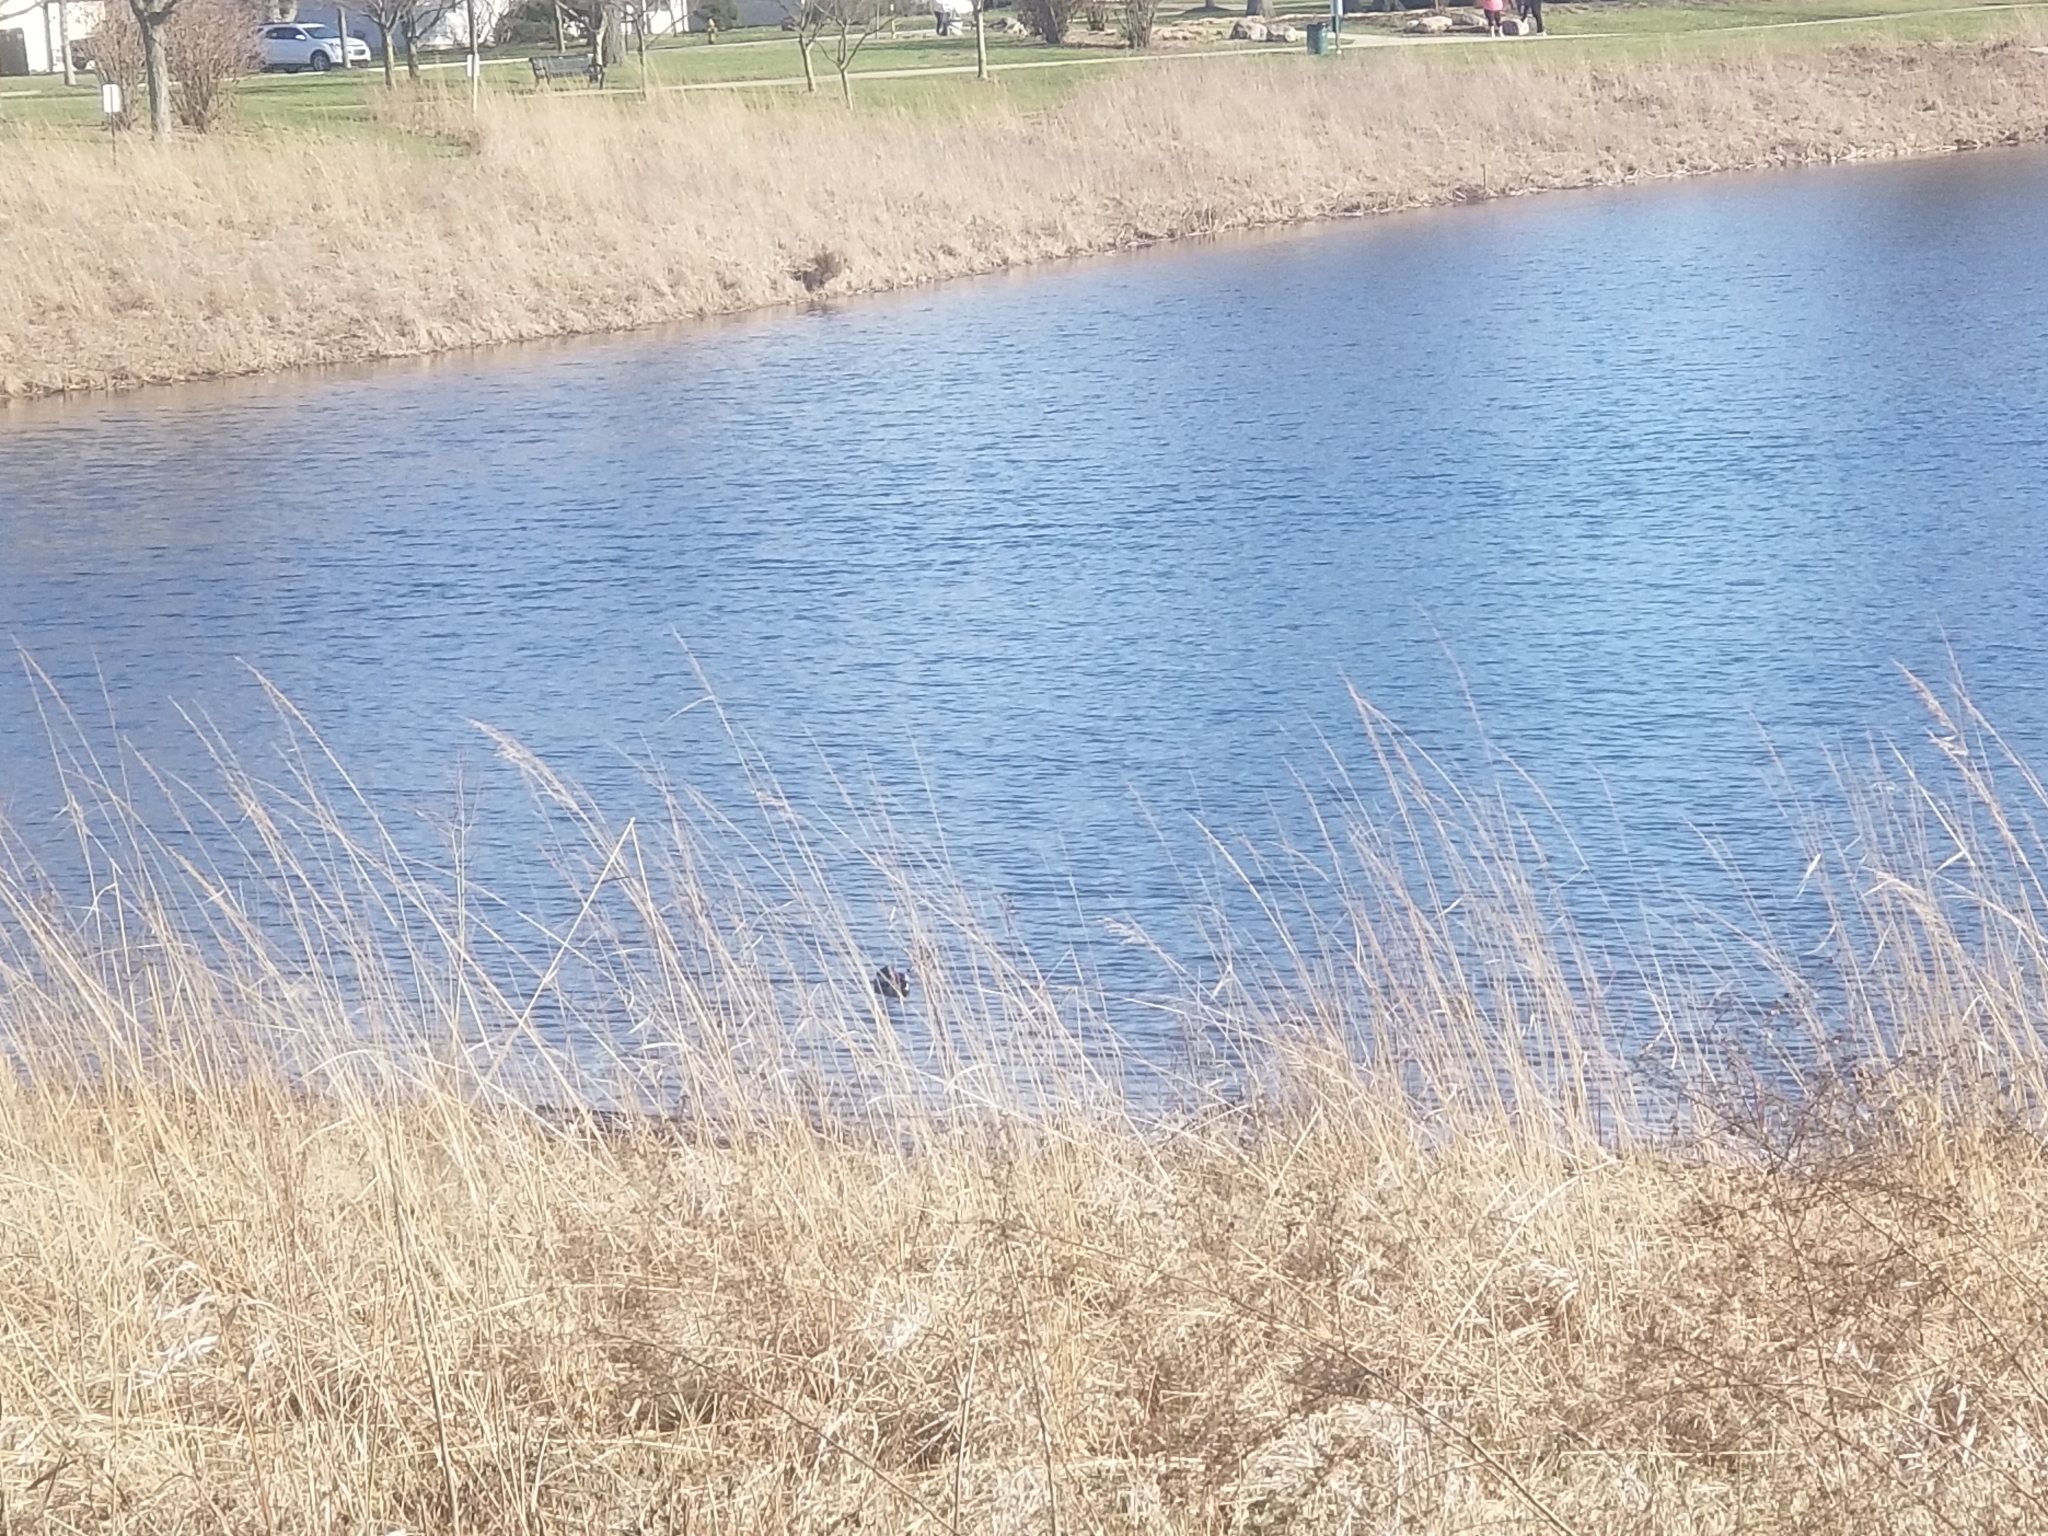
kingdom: Animalia
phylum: Chordata
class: Aves
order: Anseriformes
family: Anatidae
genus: Anas
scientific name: Anas platyrhynchos
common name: Mallard
